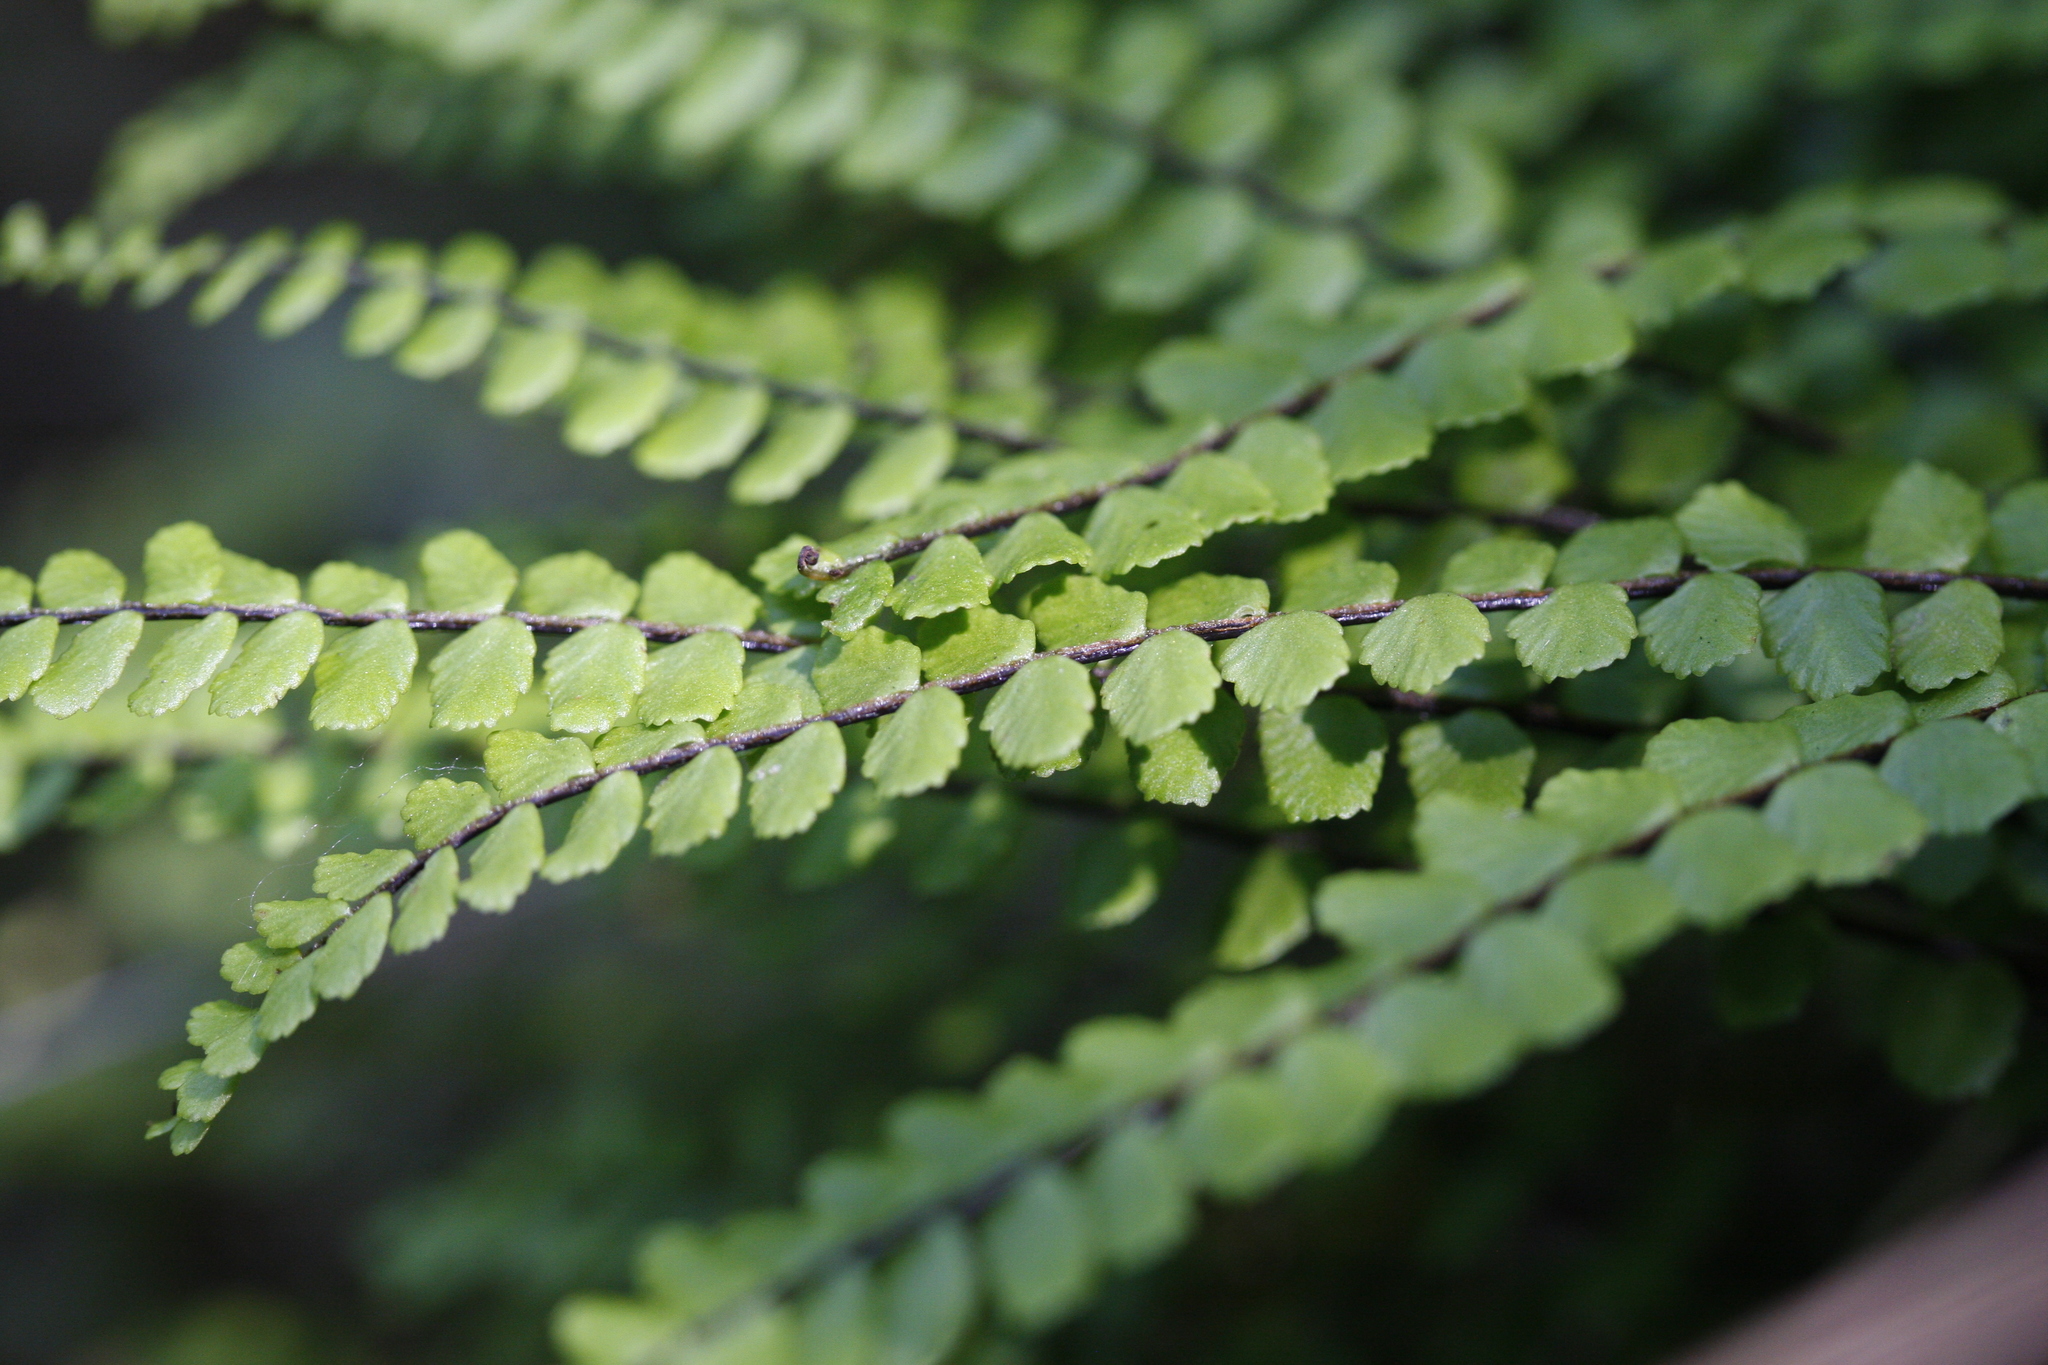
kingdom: Plantae
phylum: Tracheophyta
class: Polypodiopsida
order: Polypodiales
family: Aspleniaceae
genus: Asplenium
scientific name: Asplenium trichomanes
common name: Maidenhair spleenwort
